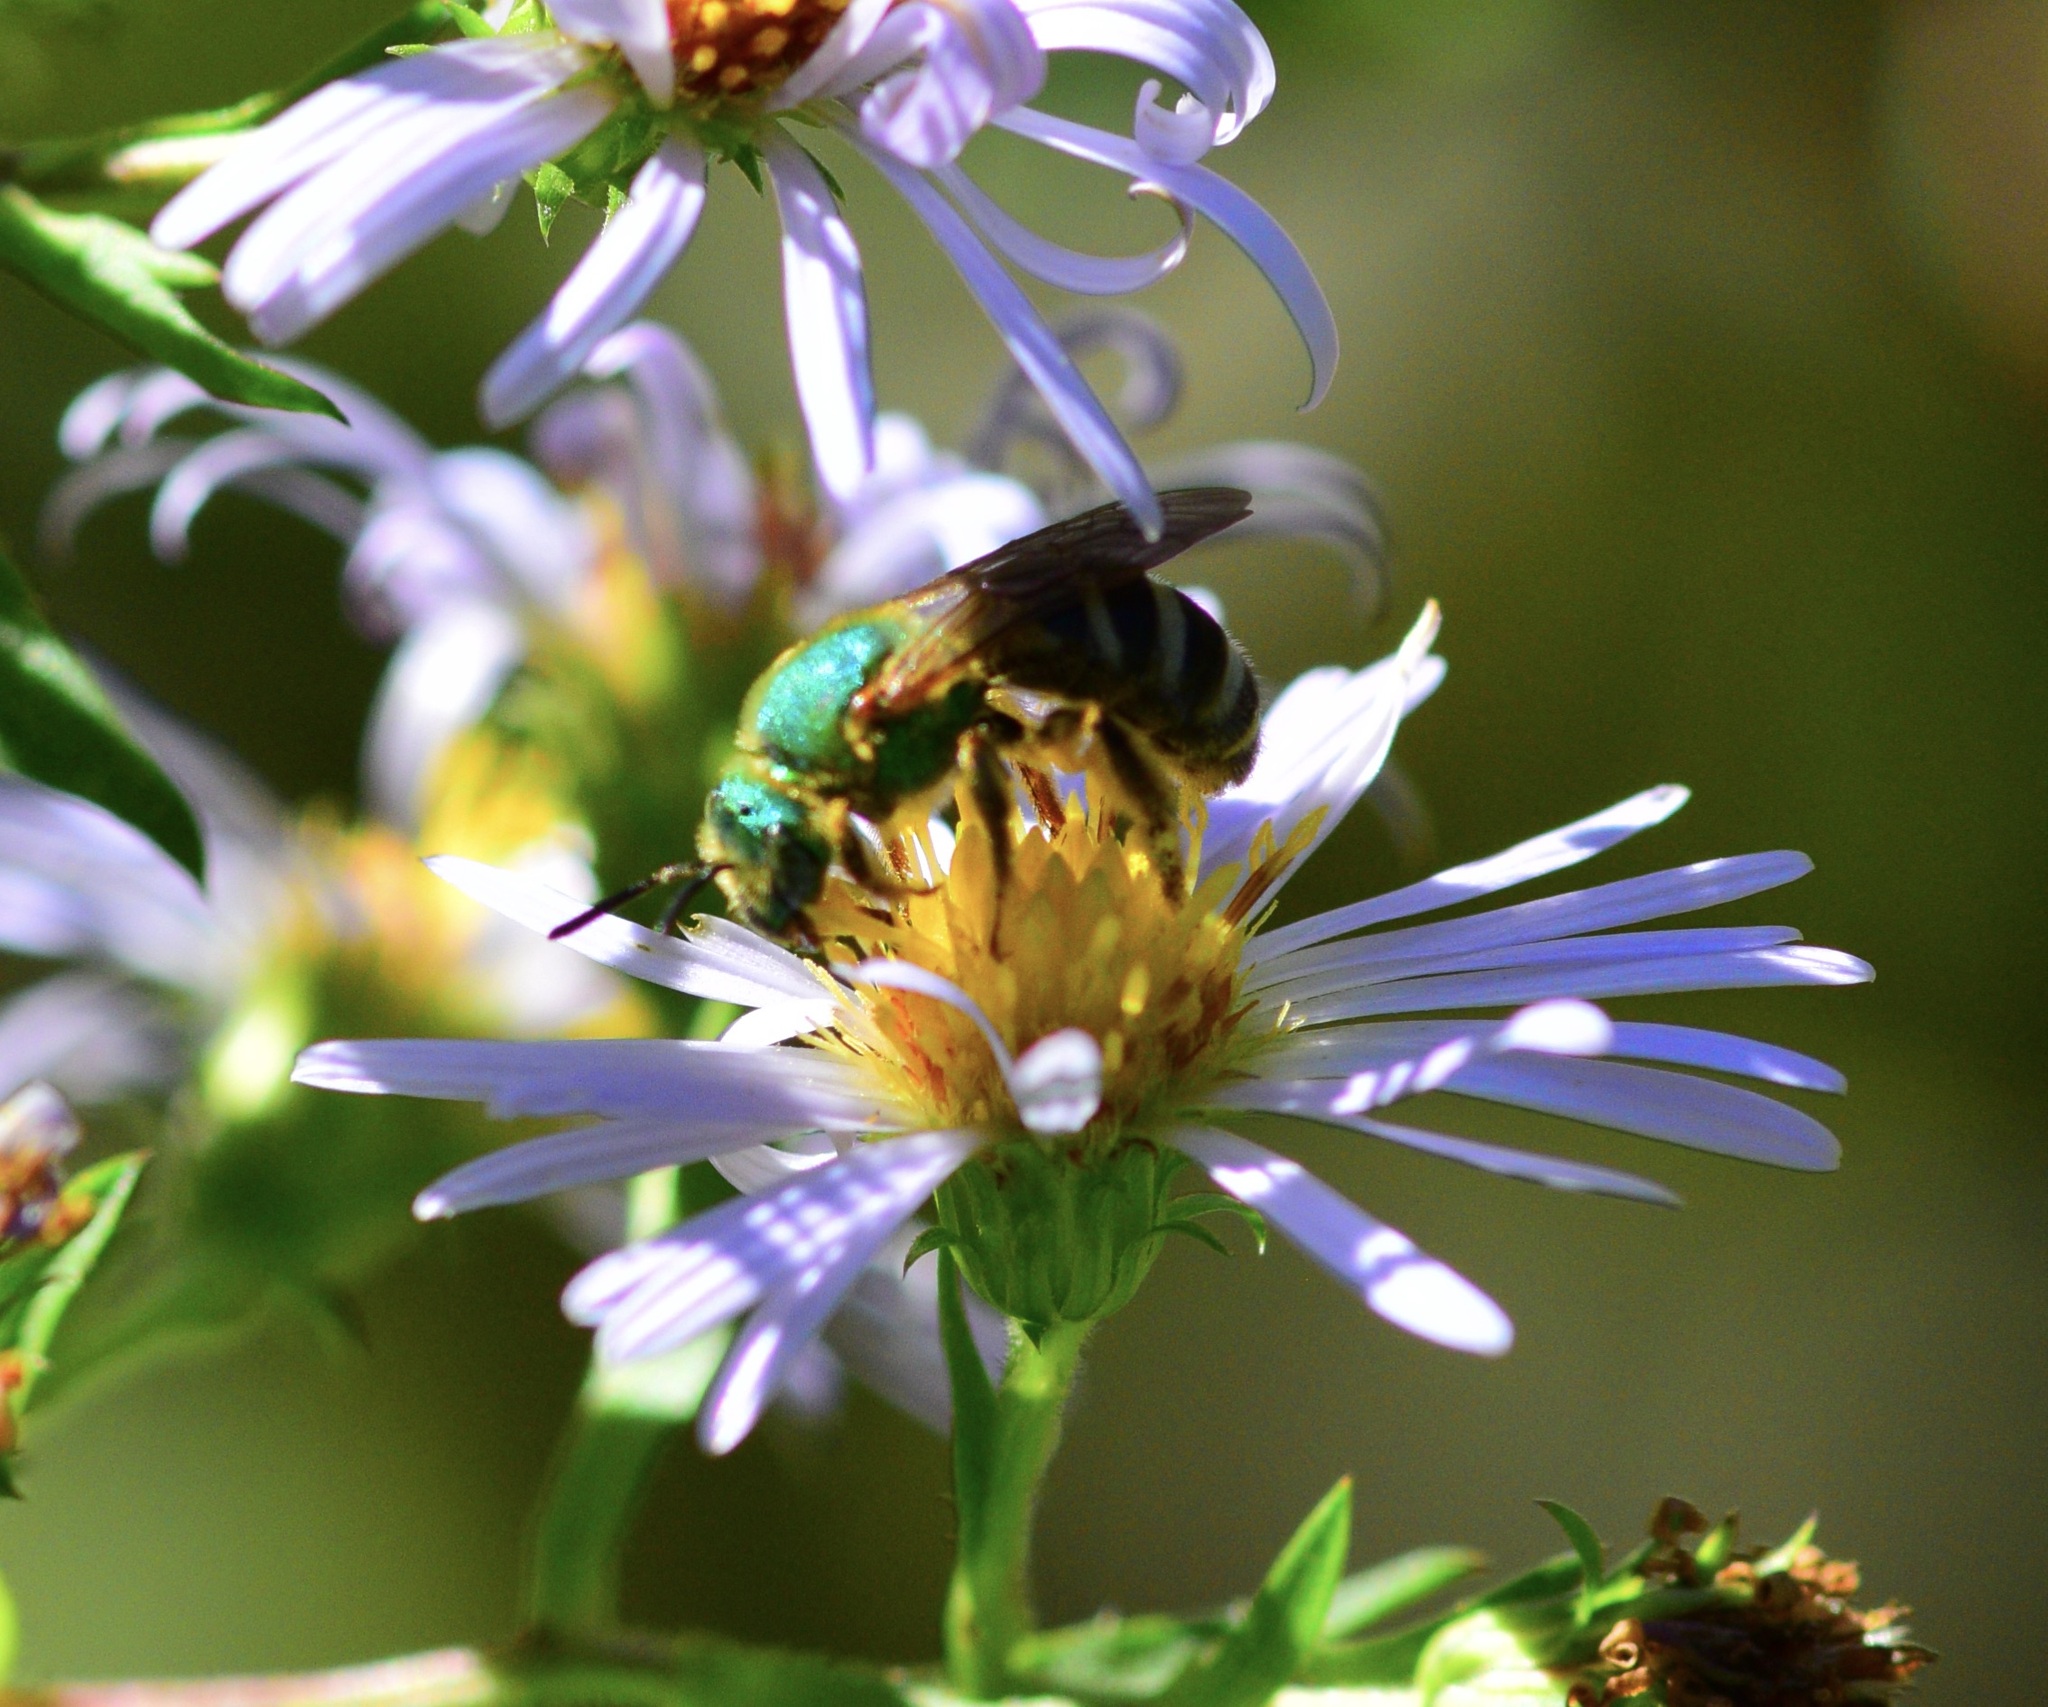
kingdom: Animalia
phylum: Arthropoda
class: Insecta
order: Hymenoptera
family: Halictidae
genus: Agapostemon
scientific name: Agapostemon virescens
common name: Bicolored striped sweat bee
